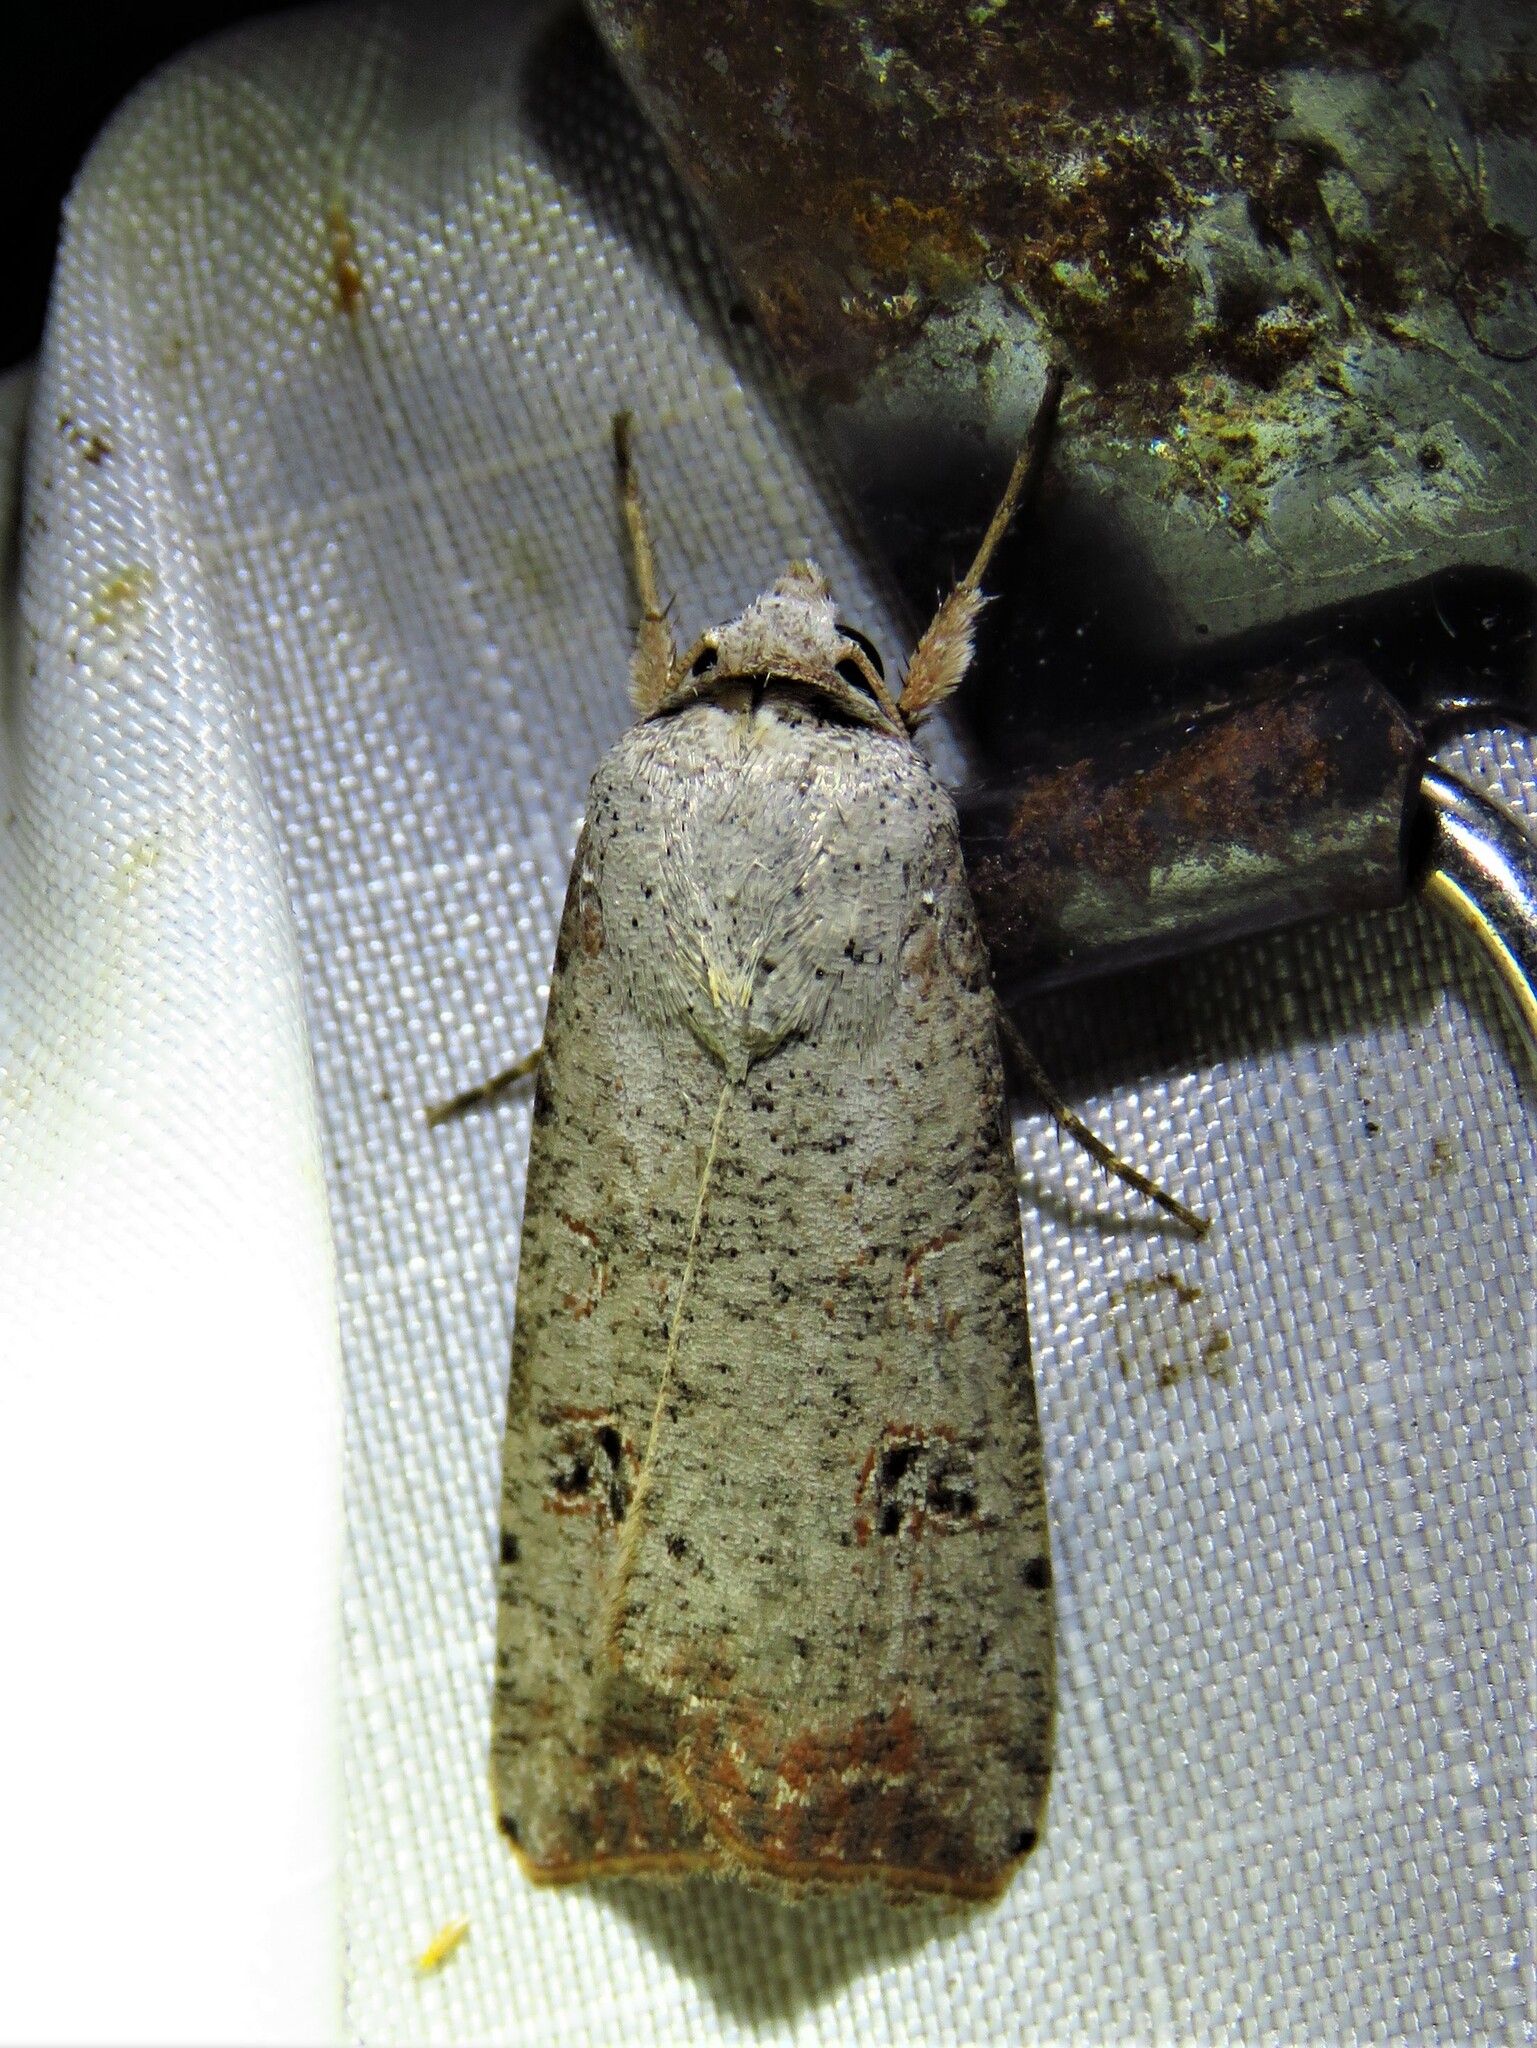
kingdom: Animalia
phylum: Arthropoda
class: Insecta
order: Lepidoptera
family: Noctuidae
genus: Anicla
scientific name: Anicla infecta
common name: Green cutworm
